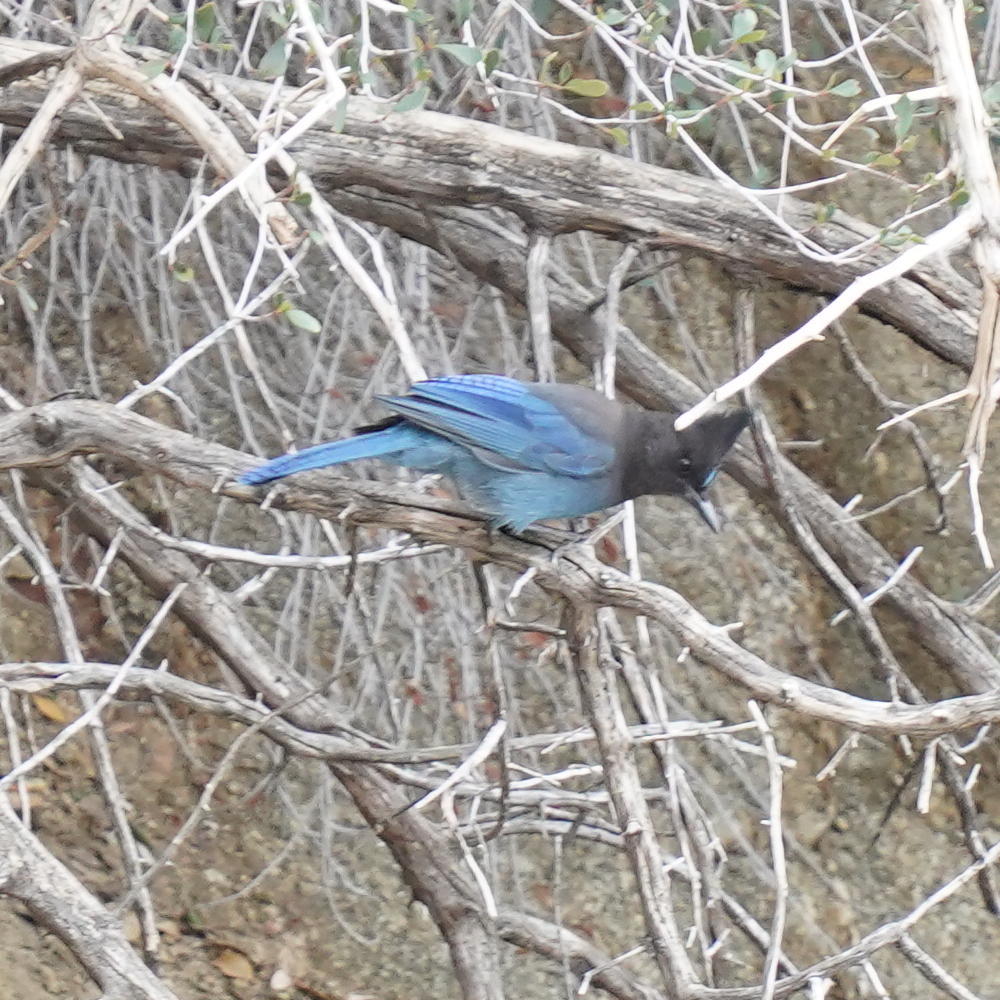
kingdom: Animalia
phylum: Chordata
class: Aves
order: Passeriformes
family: Corvidae
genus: Cyanocitta
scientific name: Cyanocitta stelleri
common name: Steller's jay
